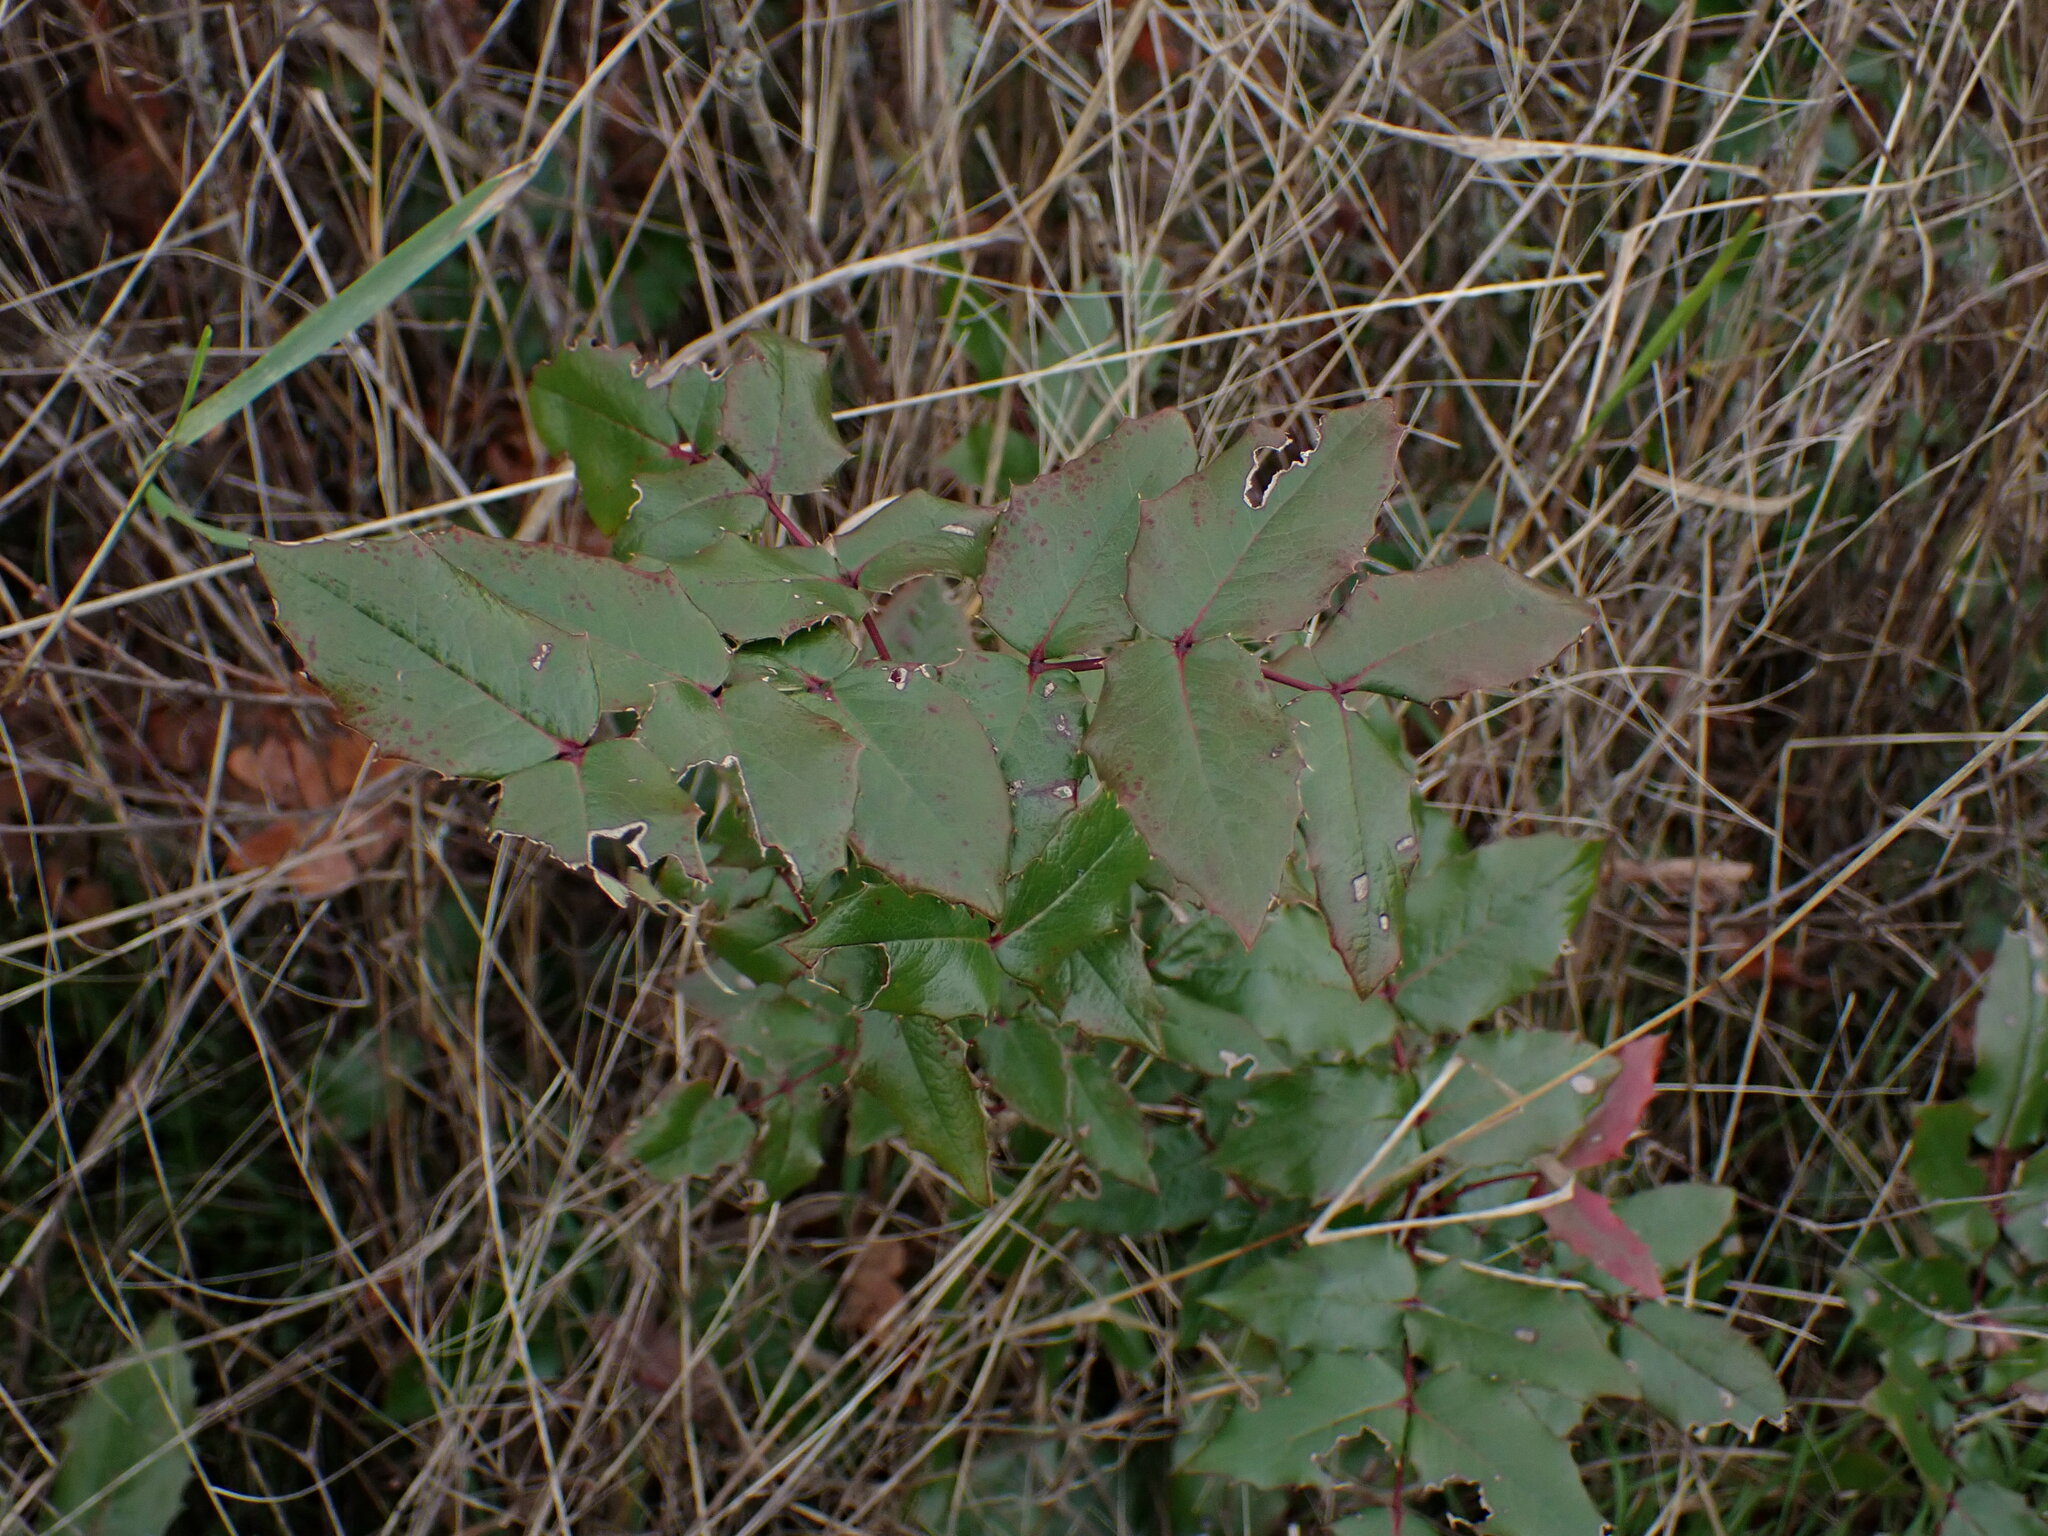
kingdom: Plantae
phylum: Tracheophyta
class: Magnoliopsida
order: Ranunculales
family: Berberidaceae
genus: Mahonia
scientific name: Mahonia aquifolium
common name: Oregon-grape
